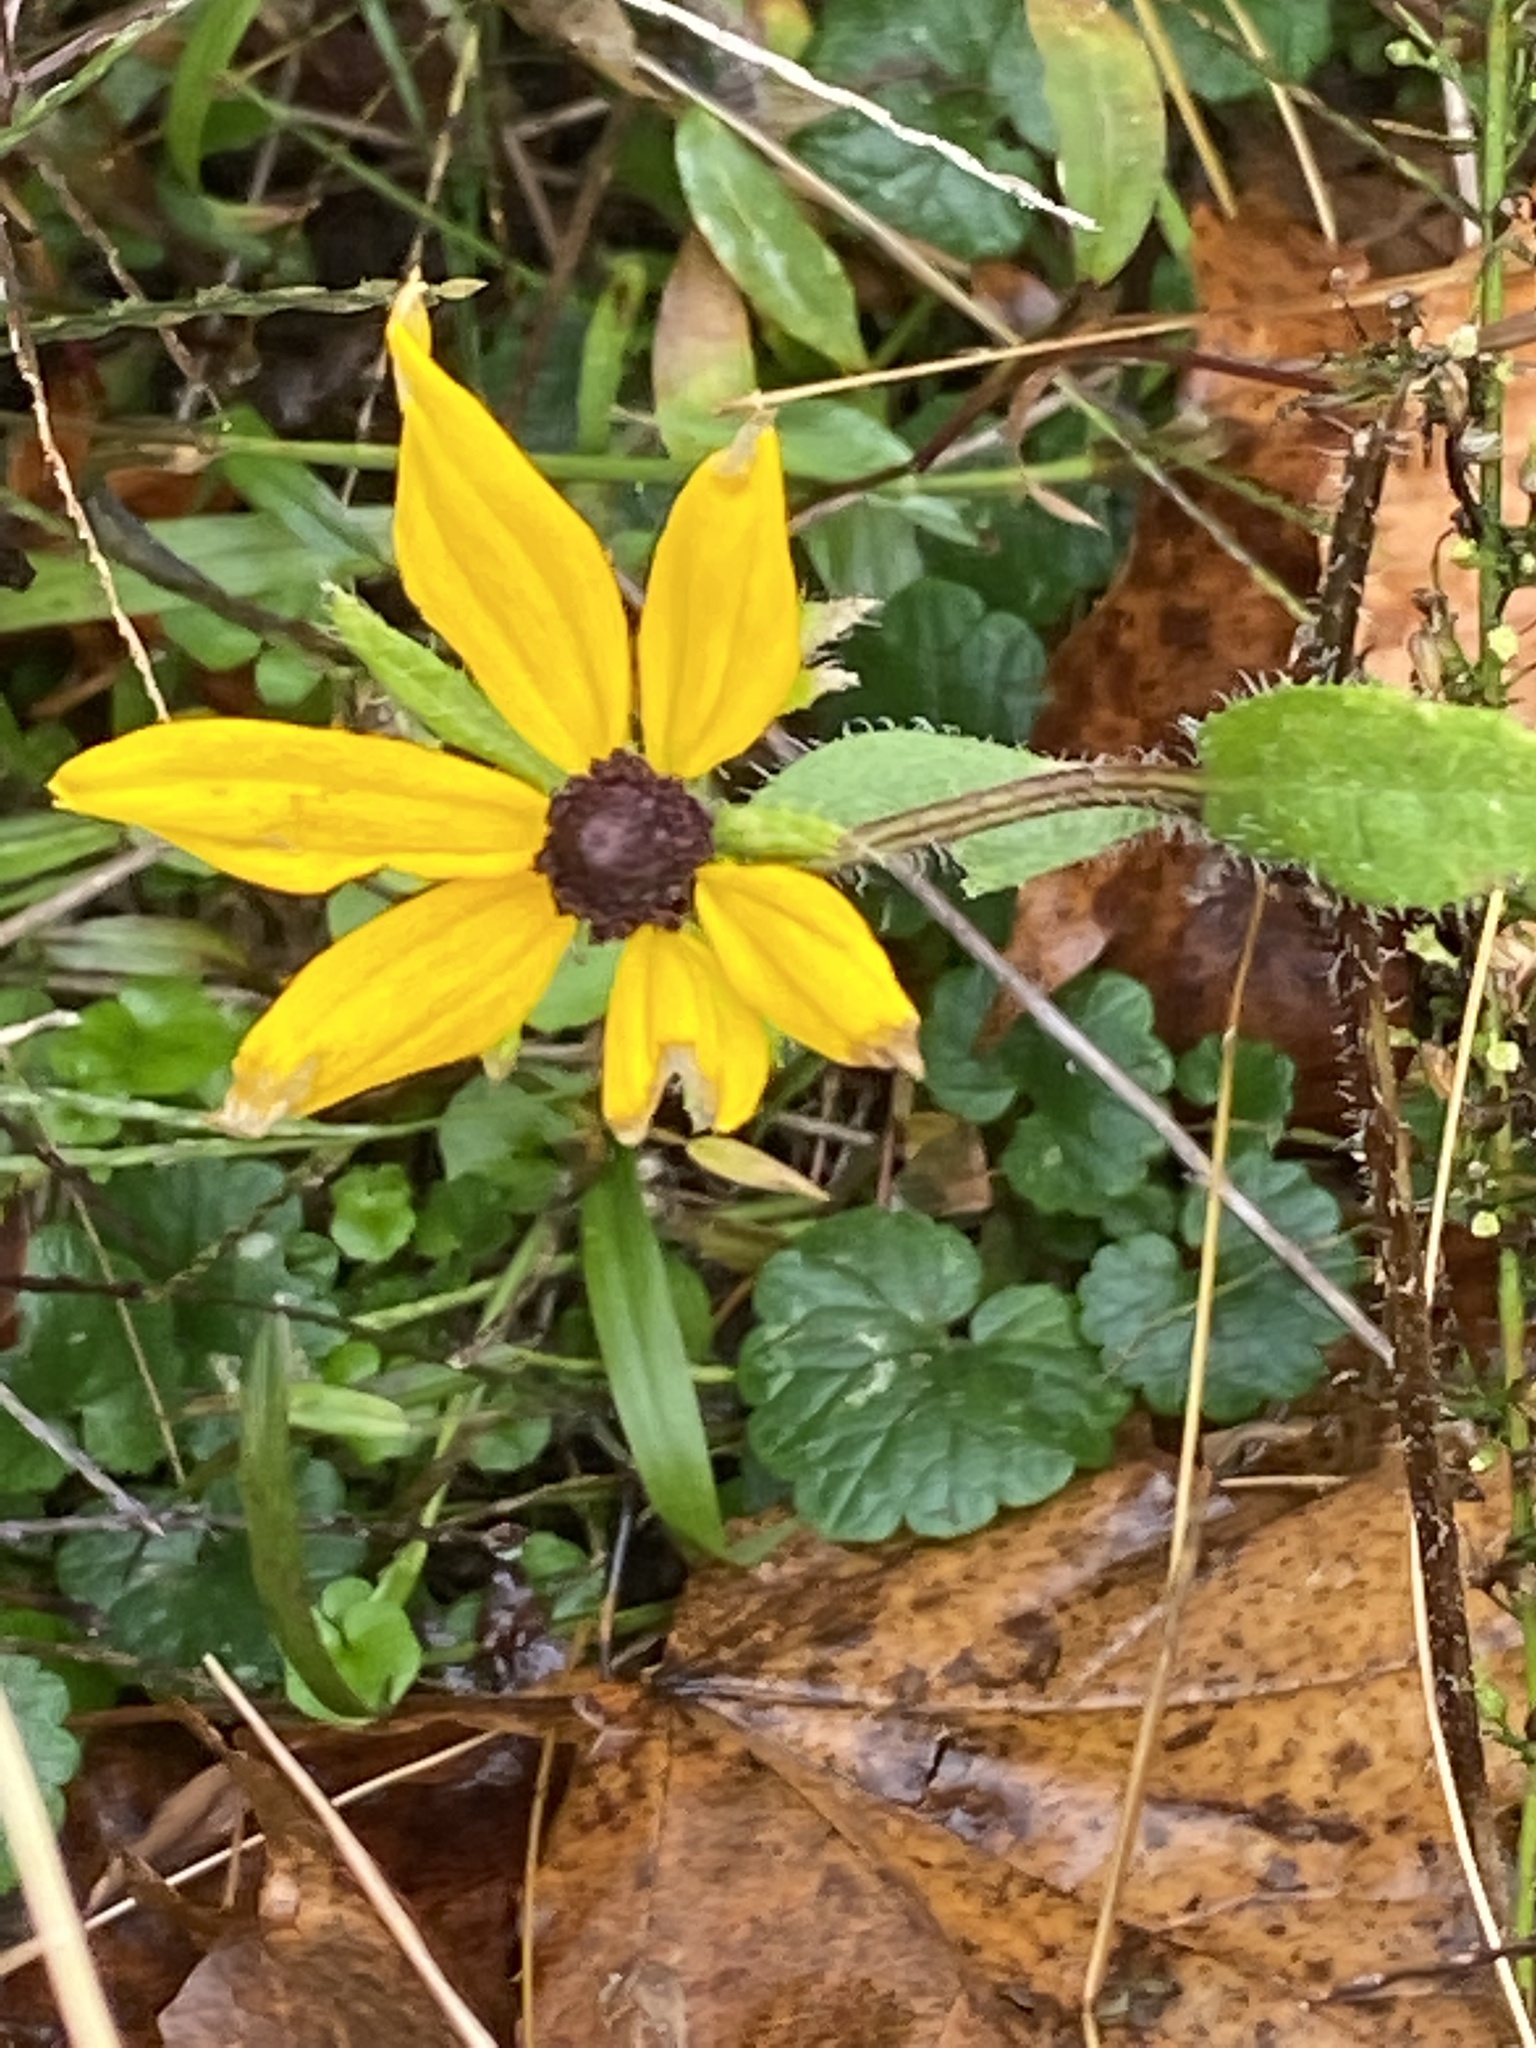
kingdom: Plantae
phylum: Tracheophyta
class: Magnoliopsida
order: Asterales
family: Asteraceae
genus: Rudbeckia
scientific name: Rudbeckia hirta
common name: Black-eyed-susan
